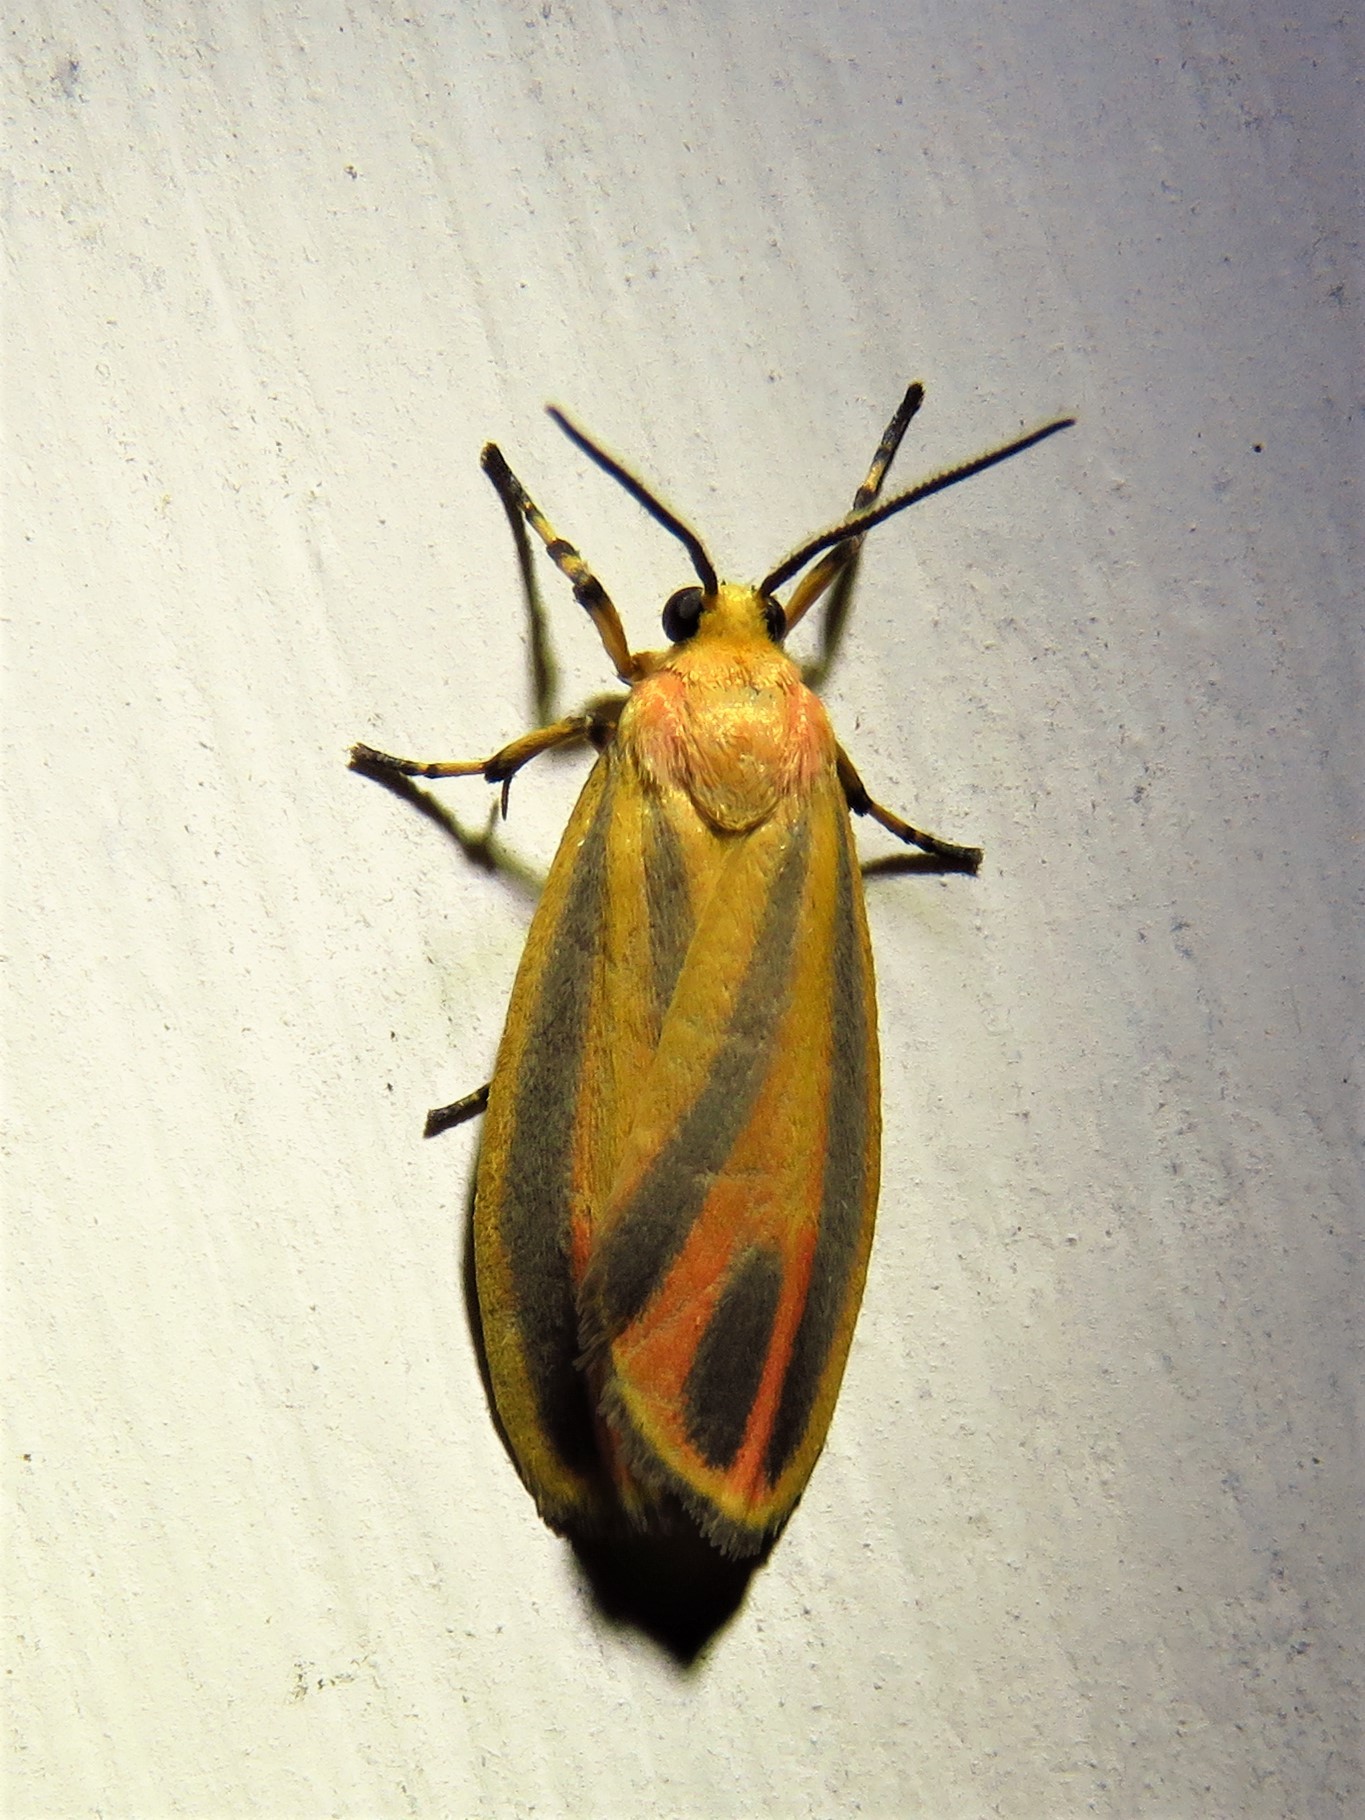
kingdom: Animalia
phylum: Arthropoda
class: Insecta
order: Lepidoptera
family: Erebidae
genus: Hypoprepia
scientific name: Hypoprepia fucosa
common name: Painted lichen moth
